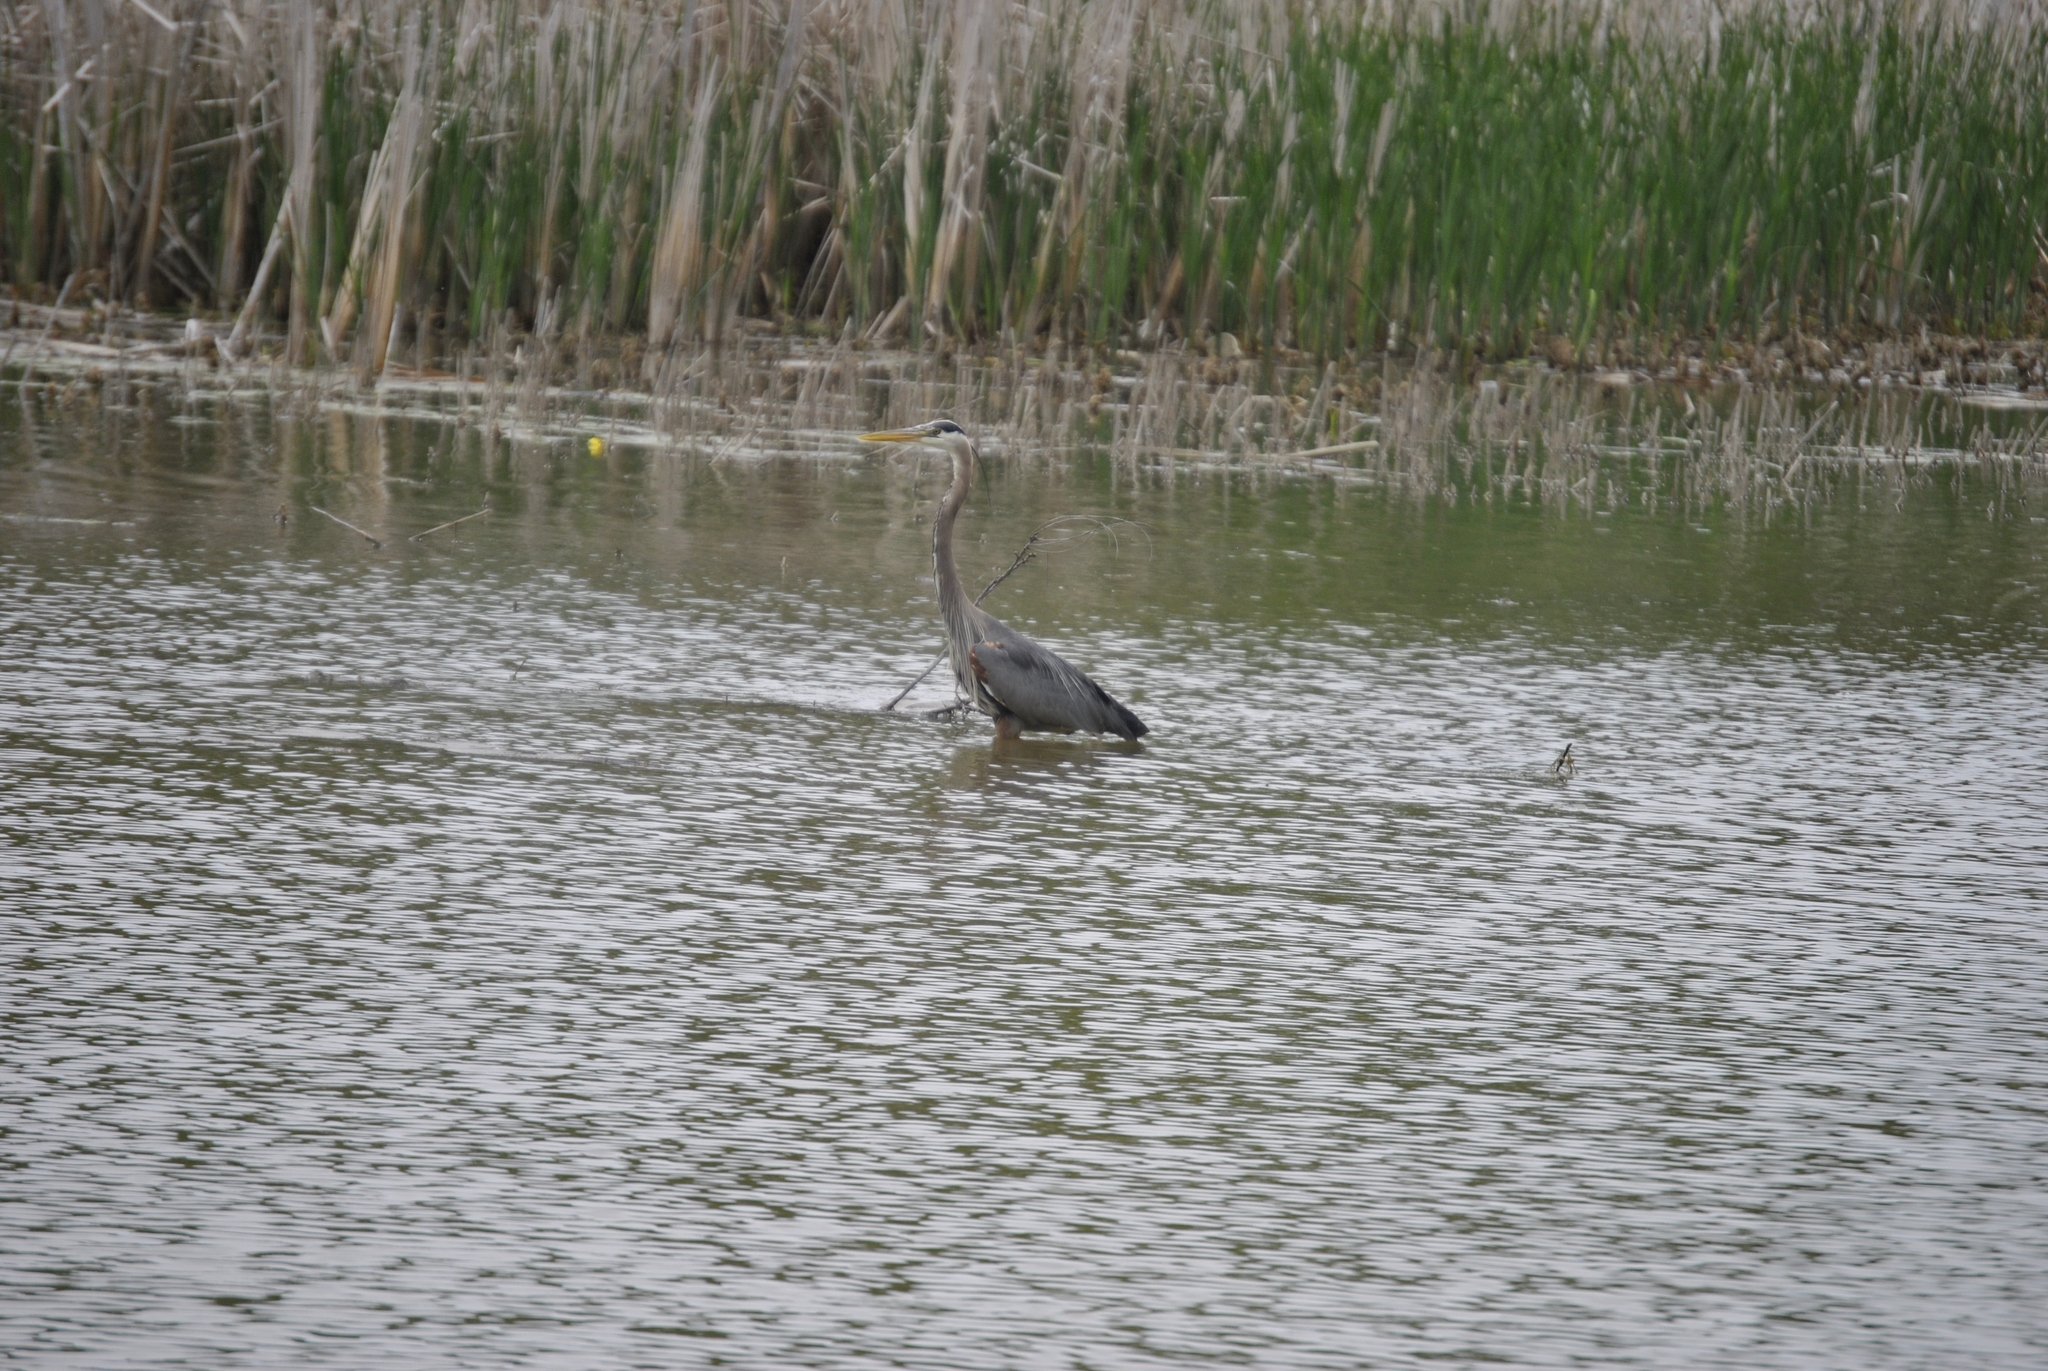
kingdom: Animalia
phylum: Chordata
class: Aves
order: Pelecaniformes
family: Ardeidae
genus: Ardea
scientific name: Ardea herodias
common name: Great blue heron
